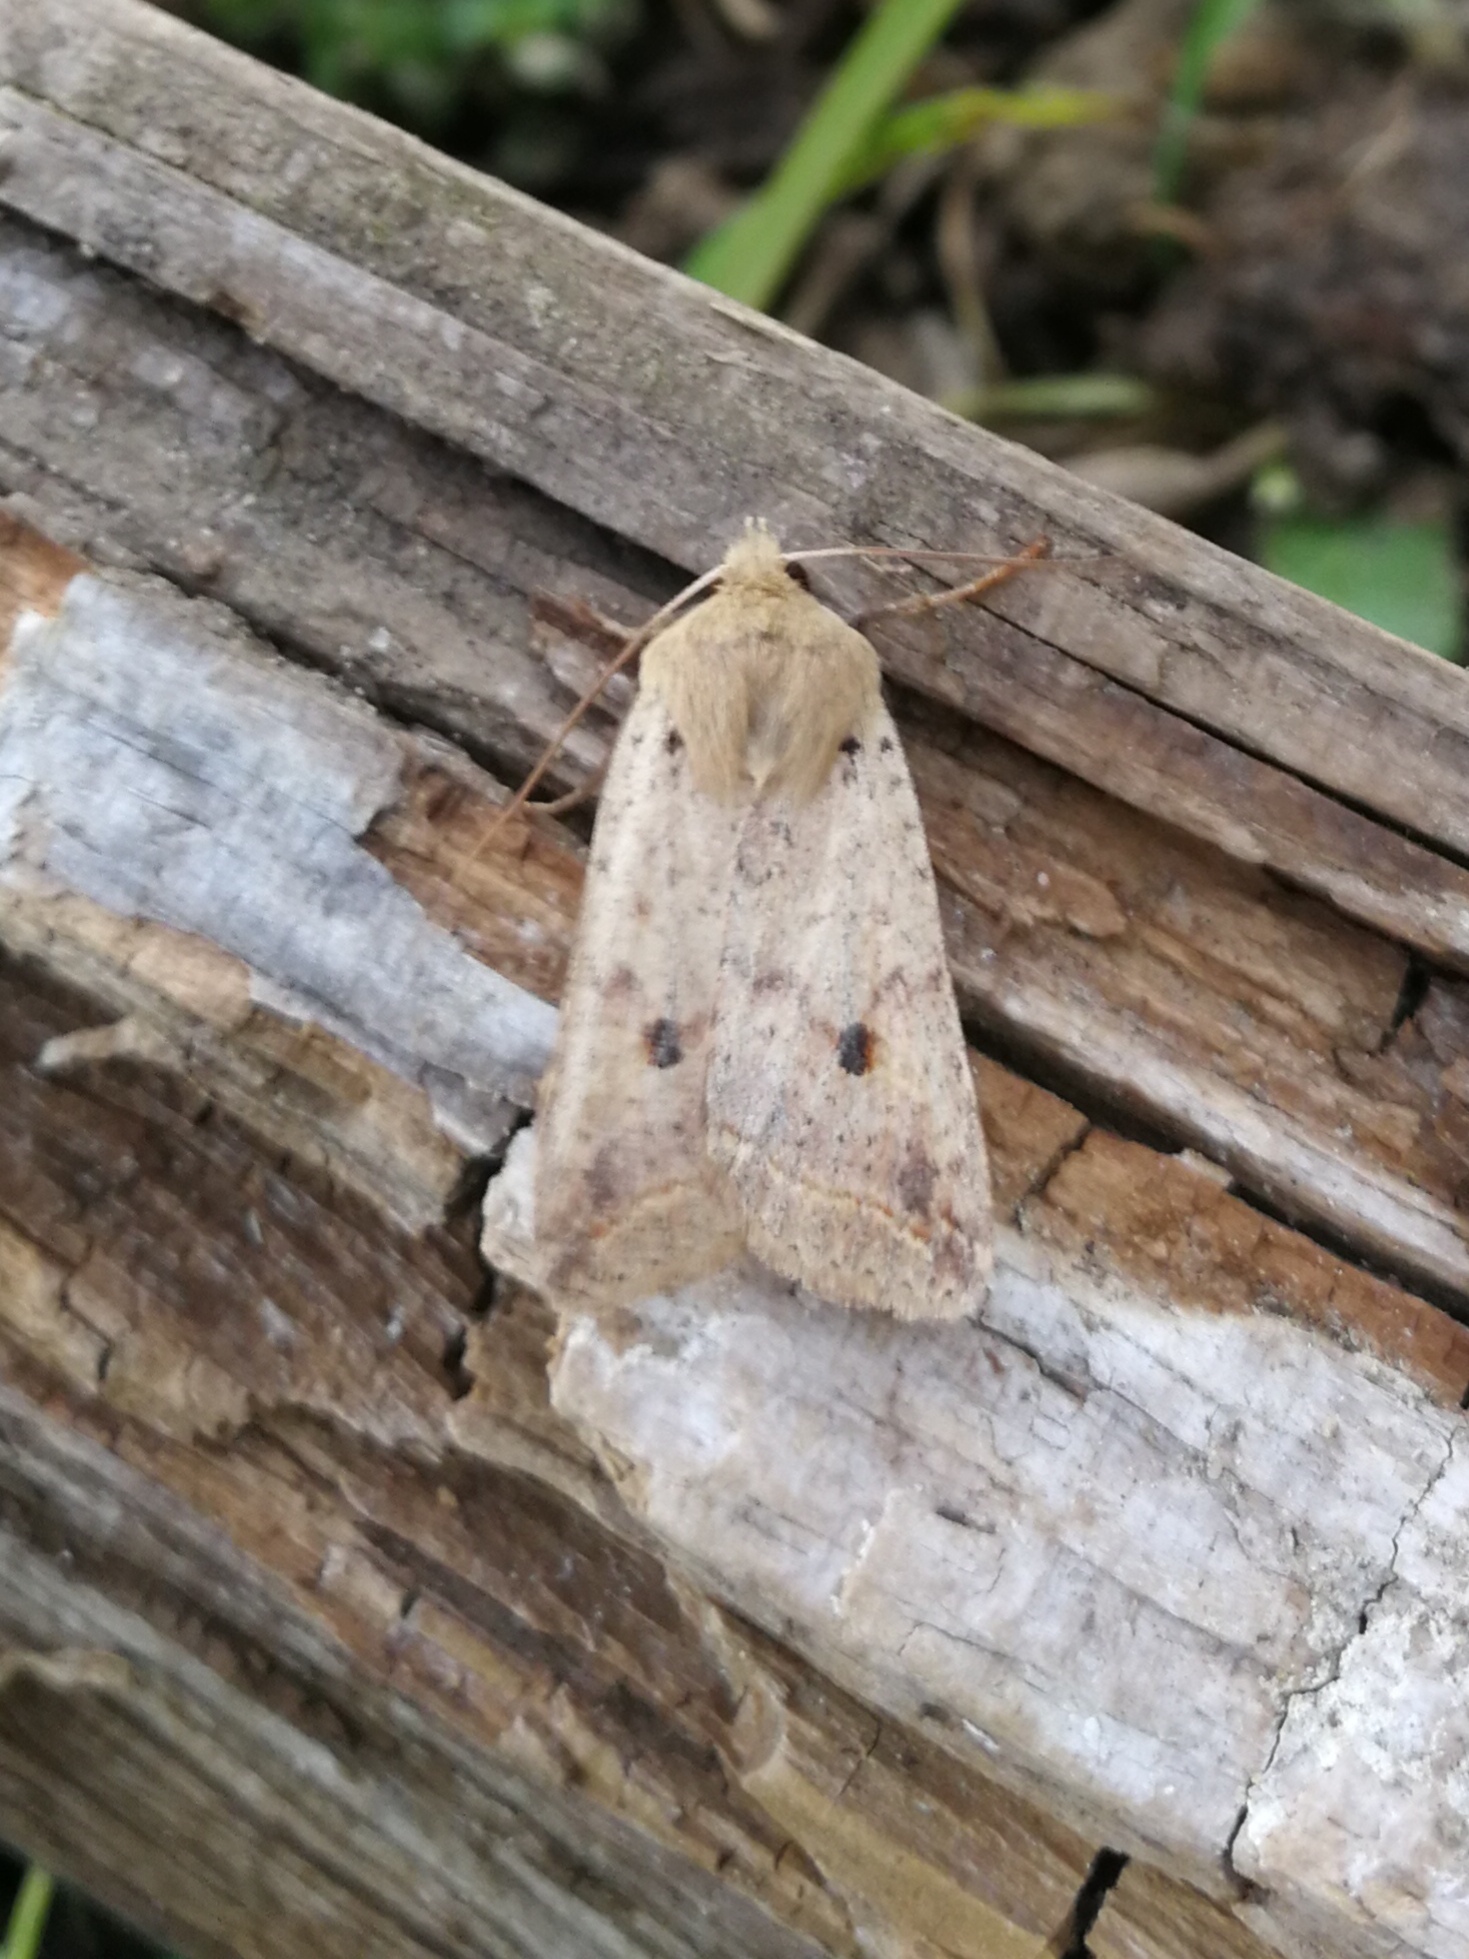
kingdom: Animalia
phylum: Arthropoda
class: Insecta
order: Lepidoptera
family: Noctuidae
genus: Agrochola
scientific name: Agrochola blidaensis
